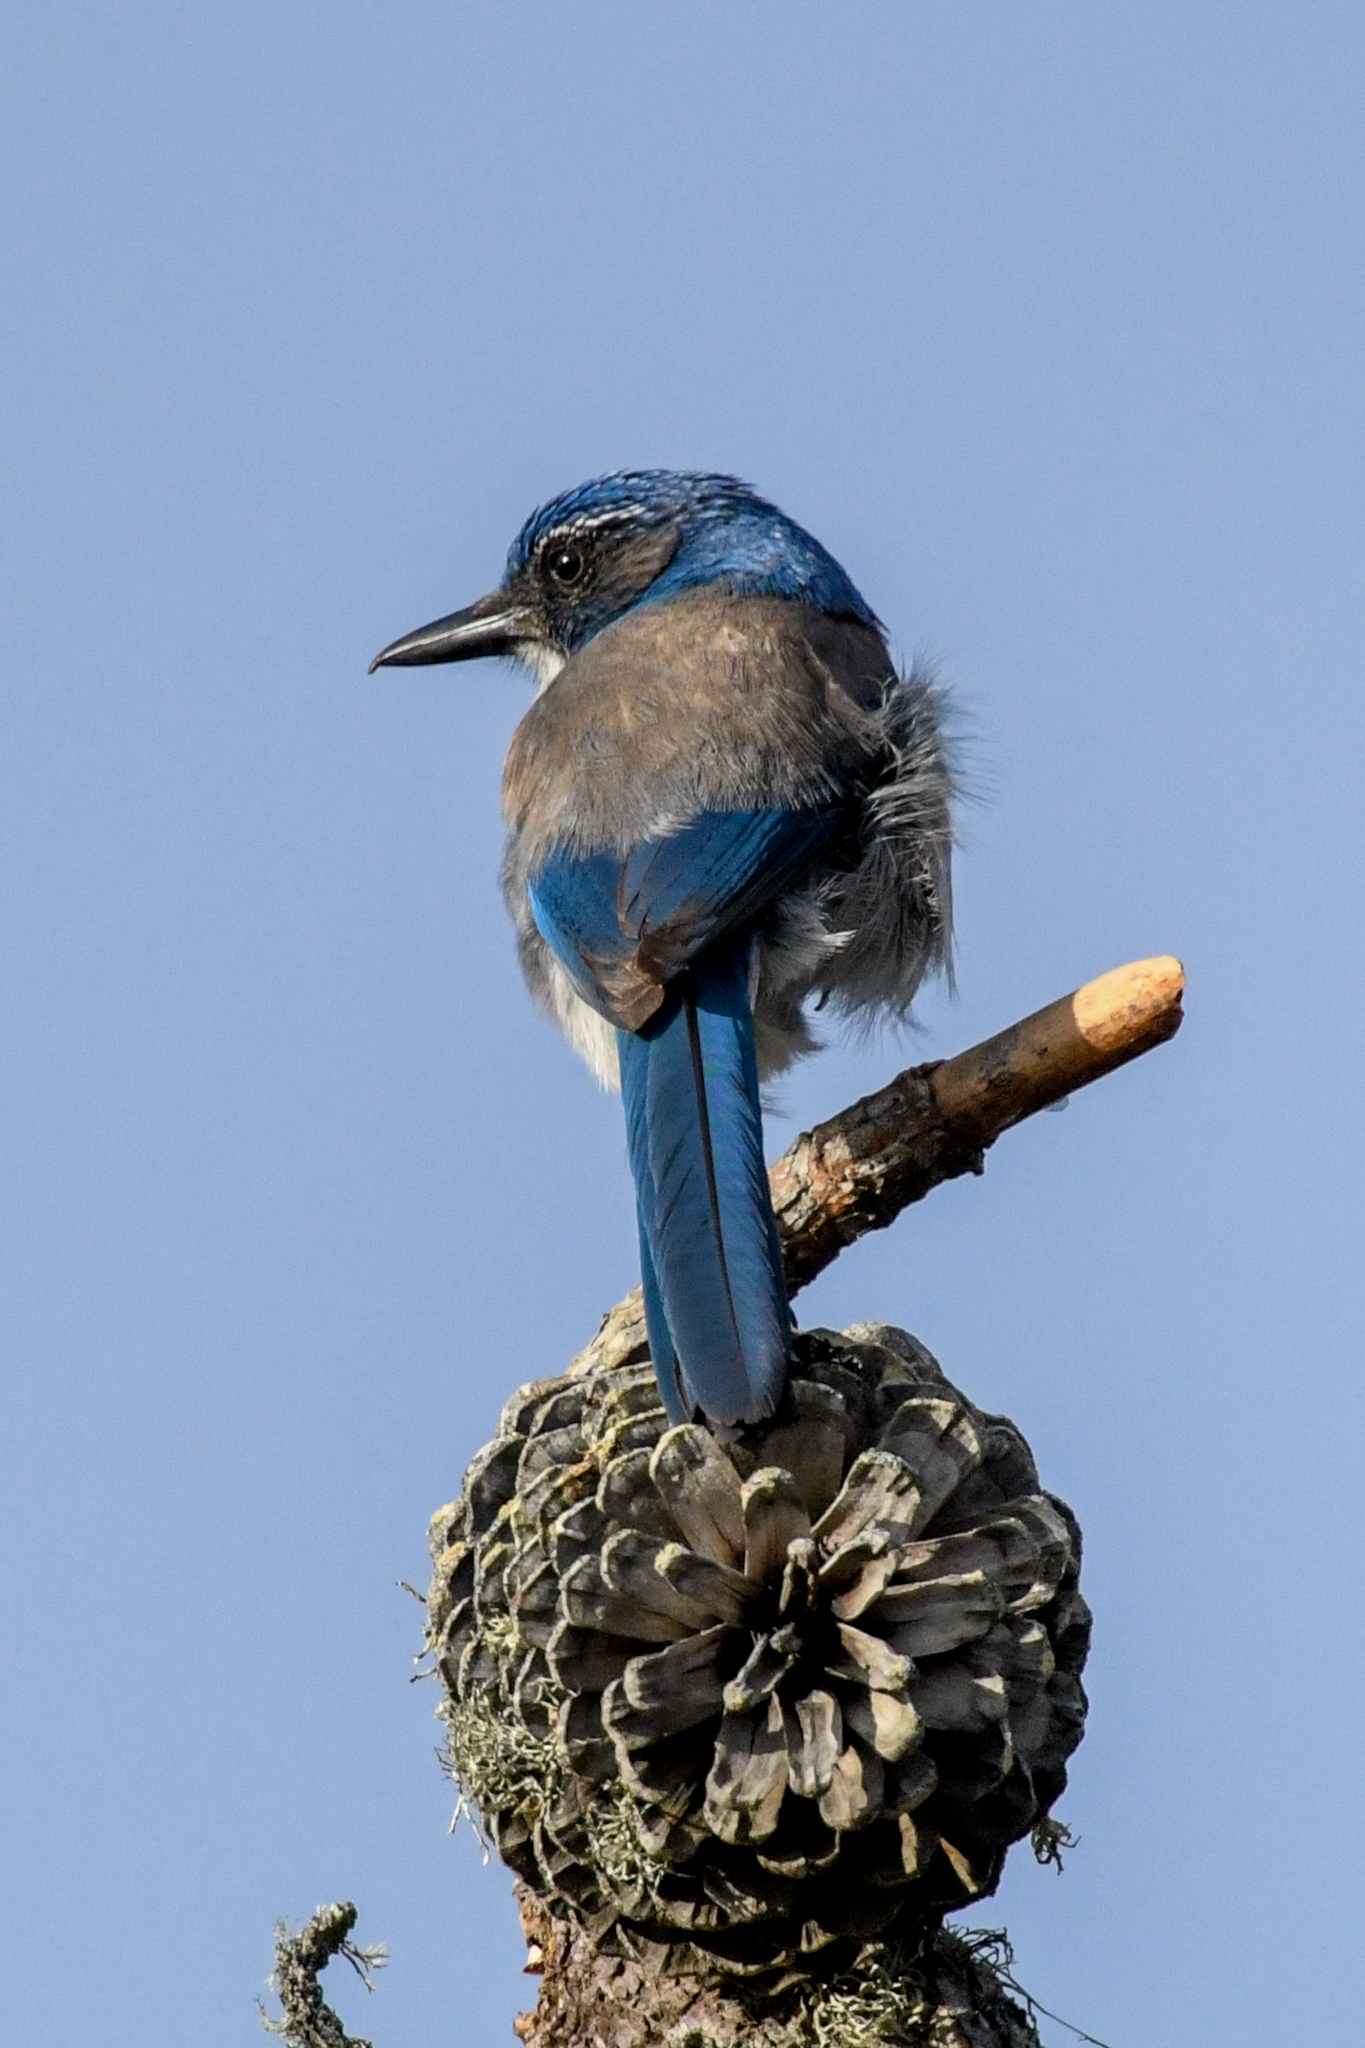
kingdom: Animalia
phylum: Chordata
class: Aves
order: Passeriformes
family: Corvidae
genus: Aphelocoma
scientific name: Aphelocoma californica
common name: California scrub-jay
